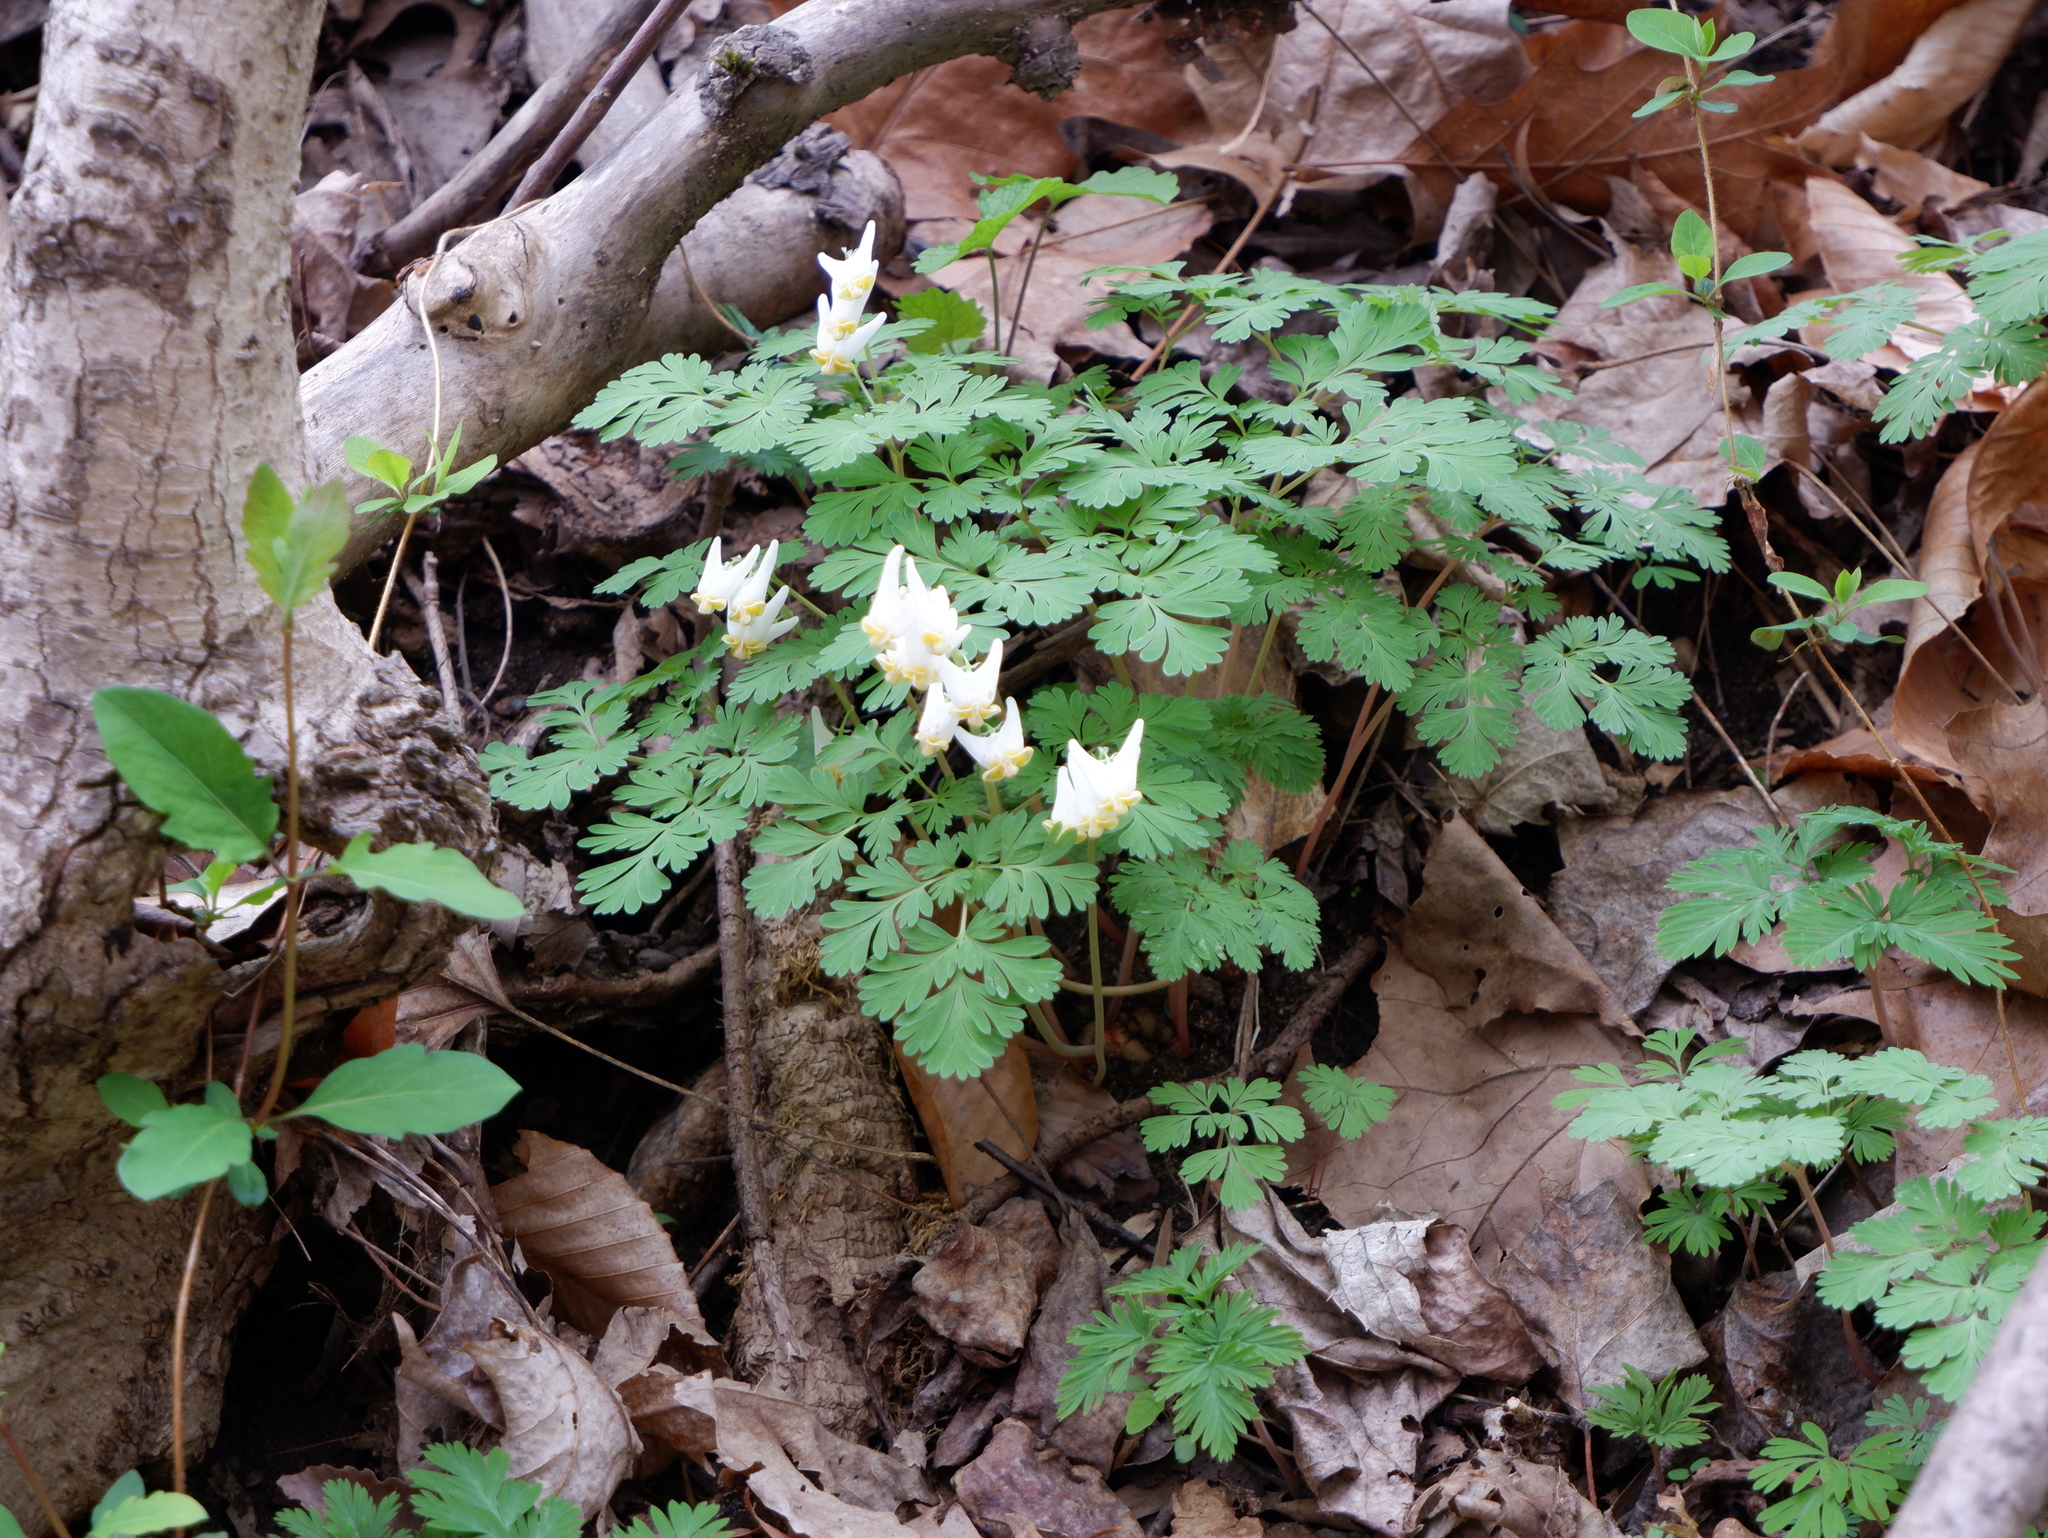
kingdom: Plantae
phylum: Tracheophyta
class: Magnoliopsida
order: Ranunculales
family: Papaveraceae
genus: Dicentra
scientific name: Dicentra cucullaria
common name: Dutchman's breeches
